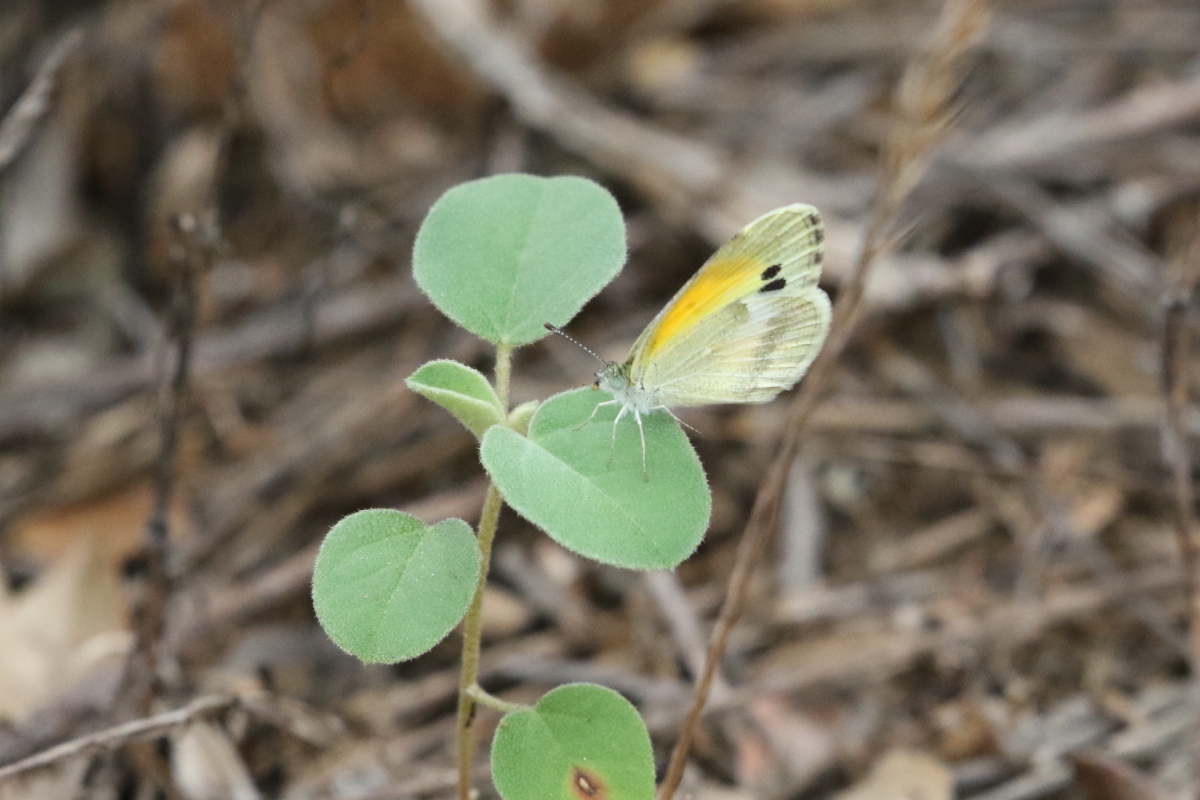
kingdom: Animalia
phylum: Arthropoda
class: Insecta
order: Lepidoptera
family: Pieridae
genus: Nathalis
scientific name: Nathalis iole
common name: Dainty sulphur
